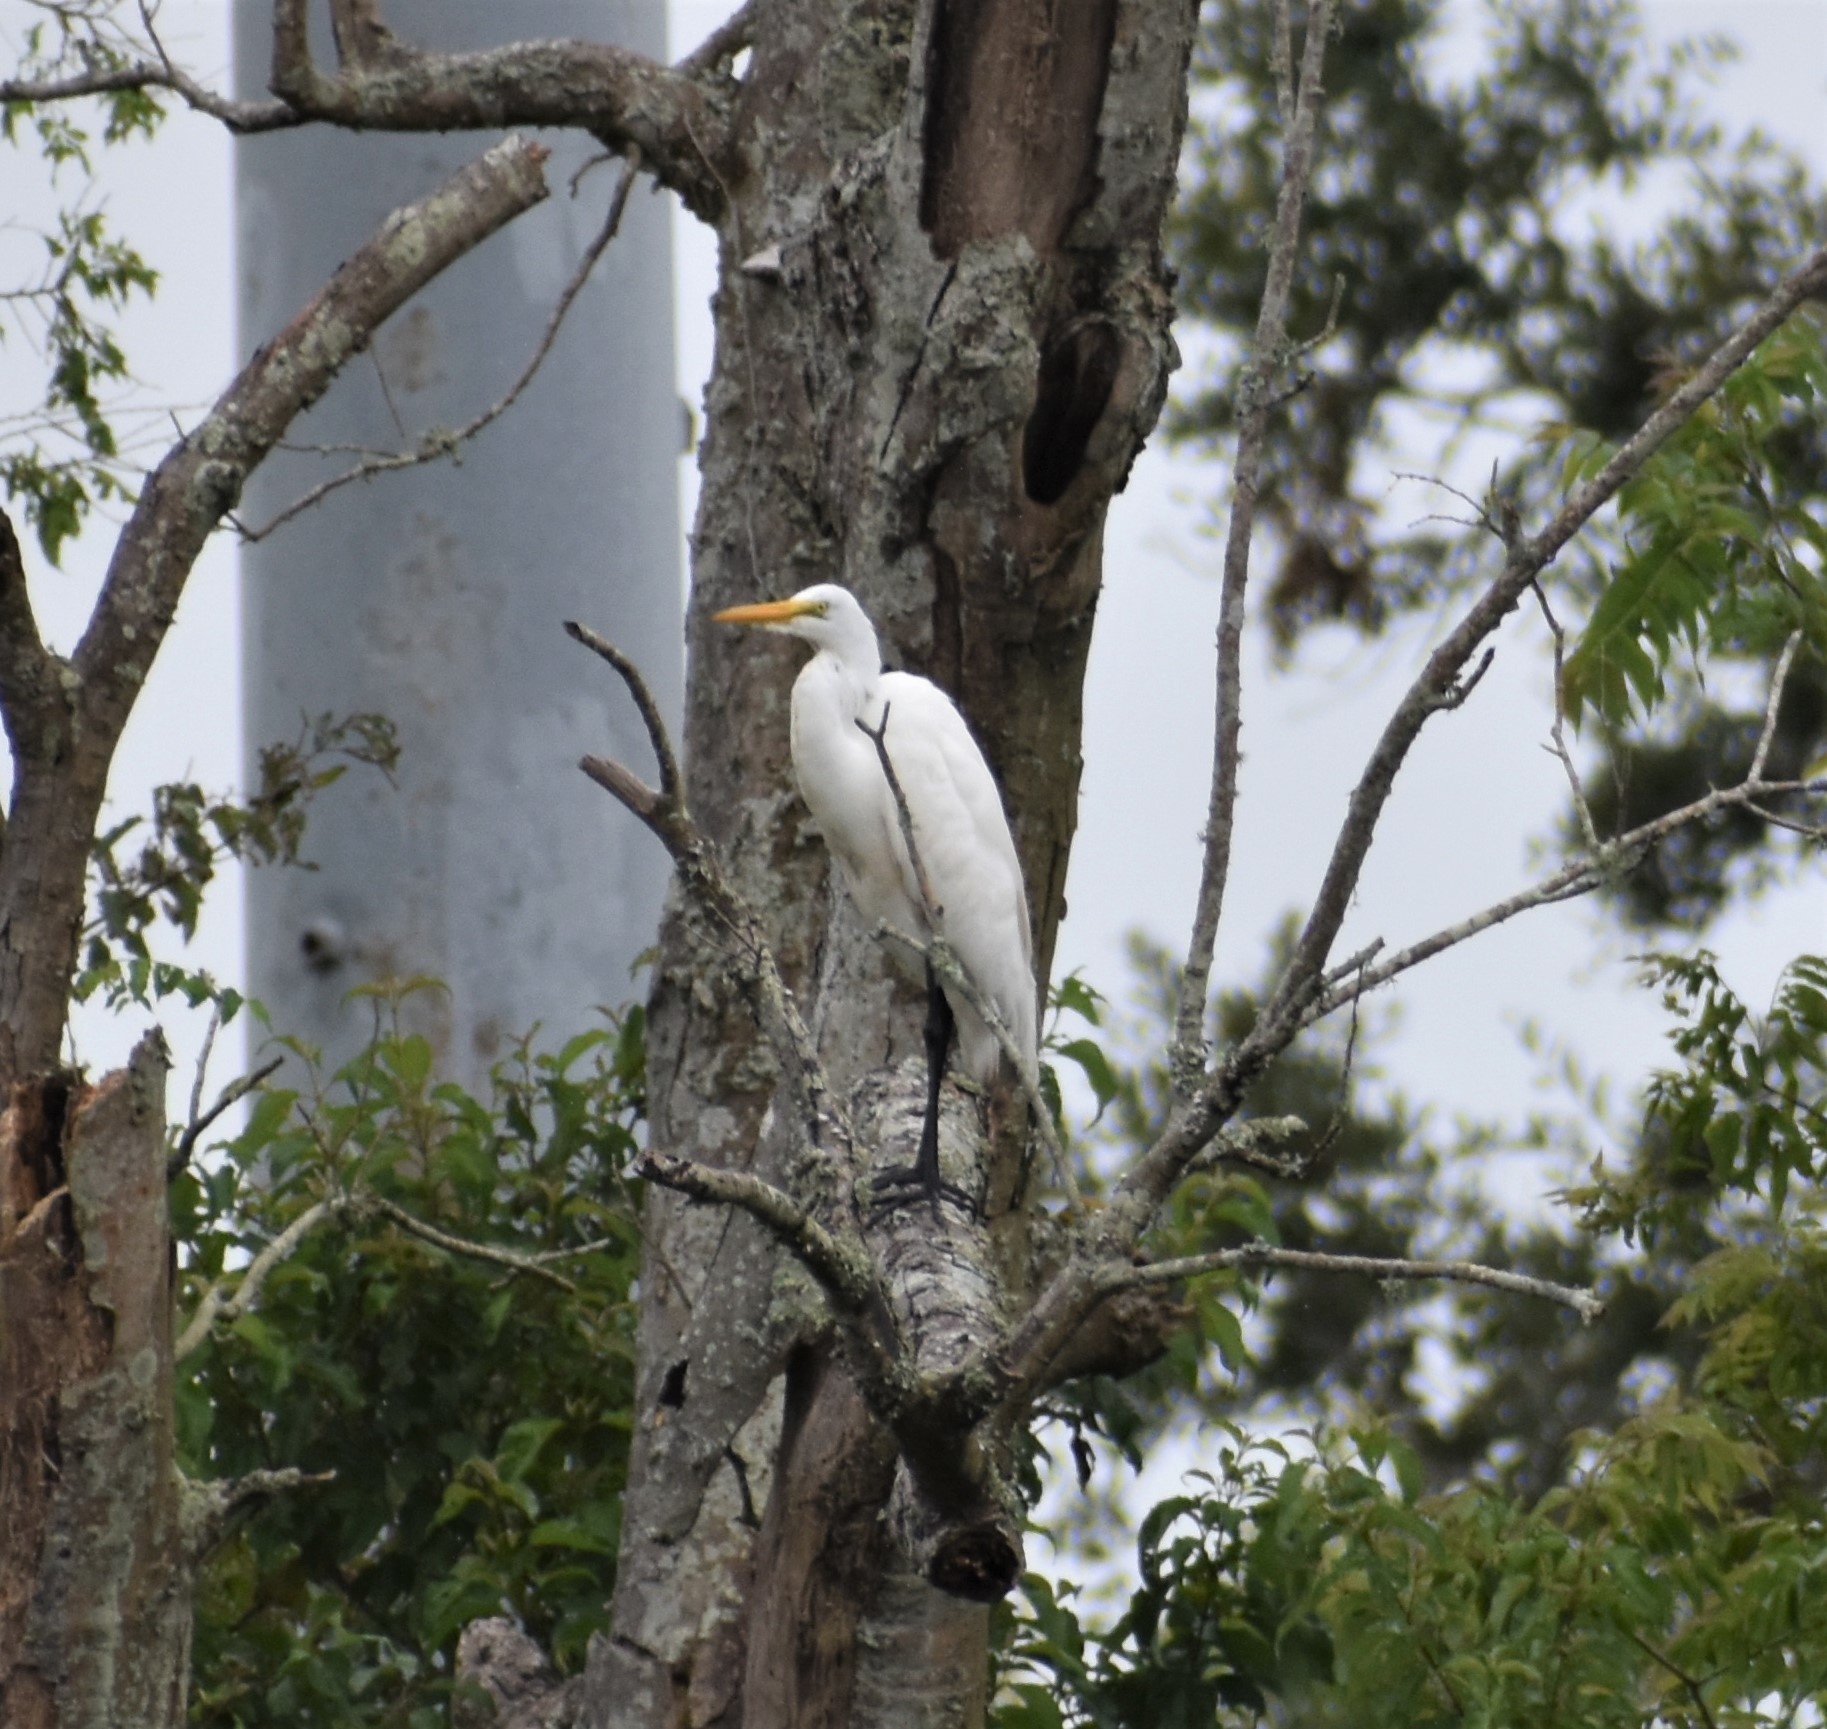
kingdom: Animalia
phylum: Chordata
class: Aves
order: Pelecaniformes
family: Ardeidae
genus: Ardea
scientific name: Ardea alba
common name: Great egret
